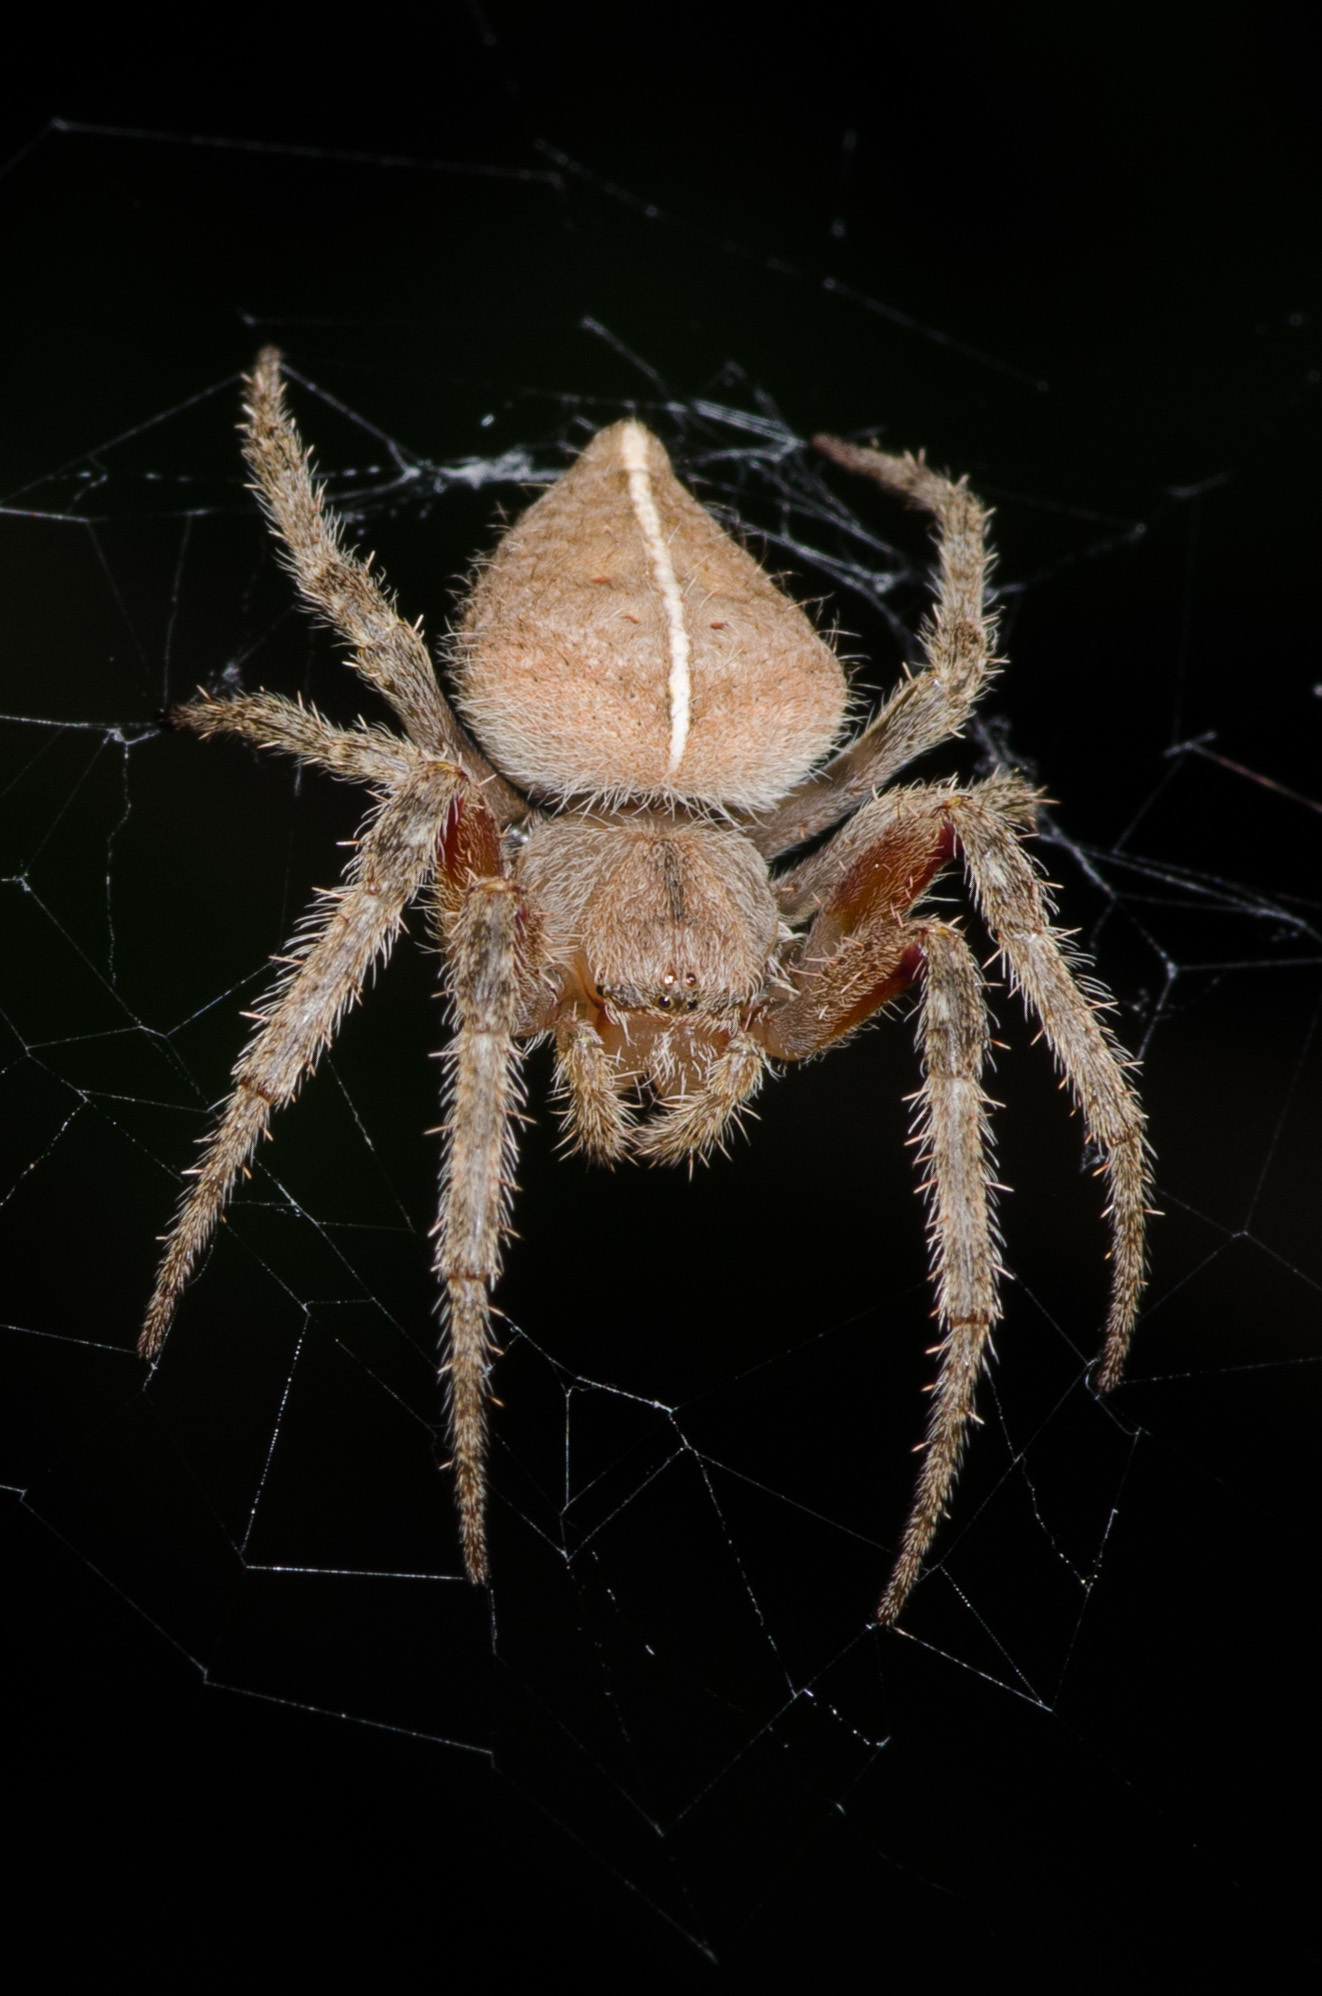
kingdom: Animalia
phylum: Arthropoda
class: Arachnida
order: Araneae
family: Araneidae
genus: Eriophora
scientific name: Eriophora edax
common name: Orb weavers
